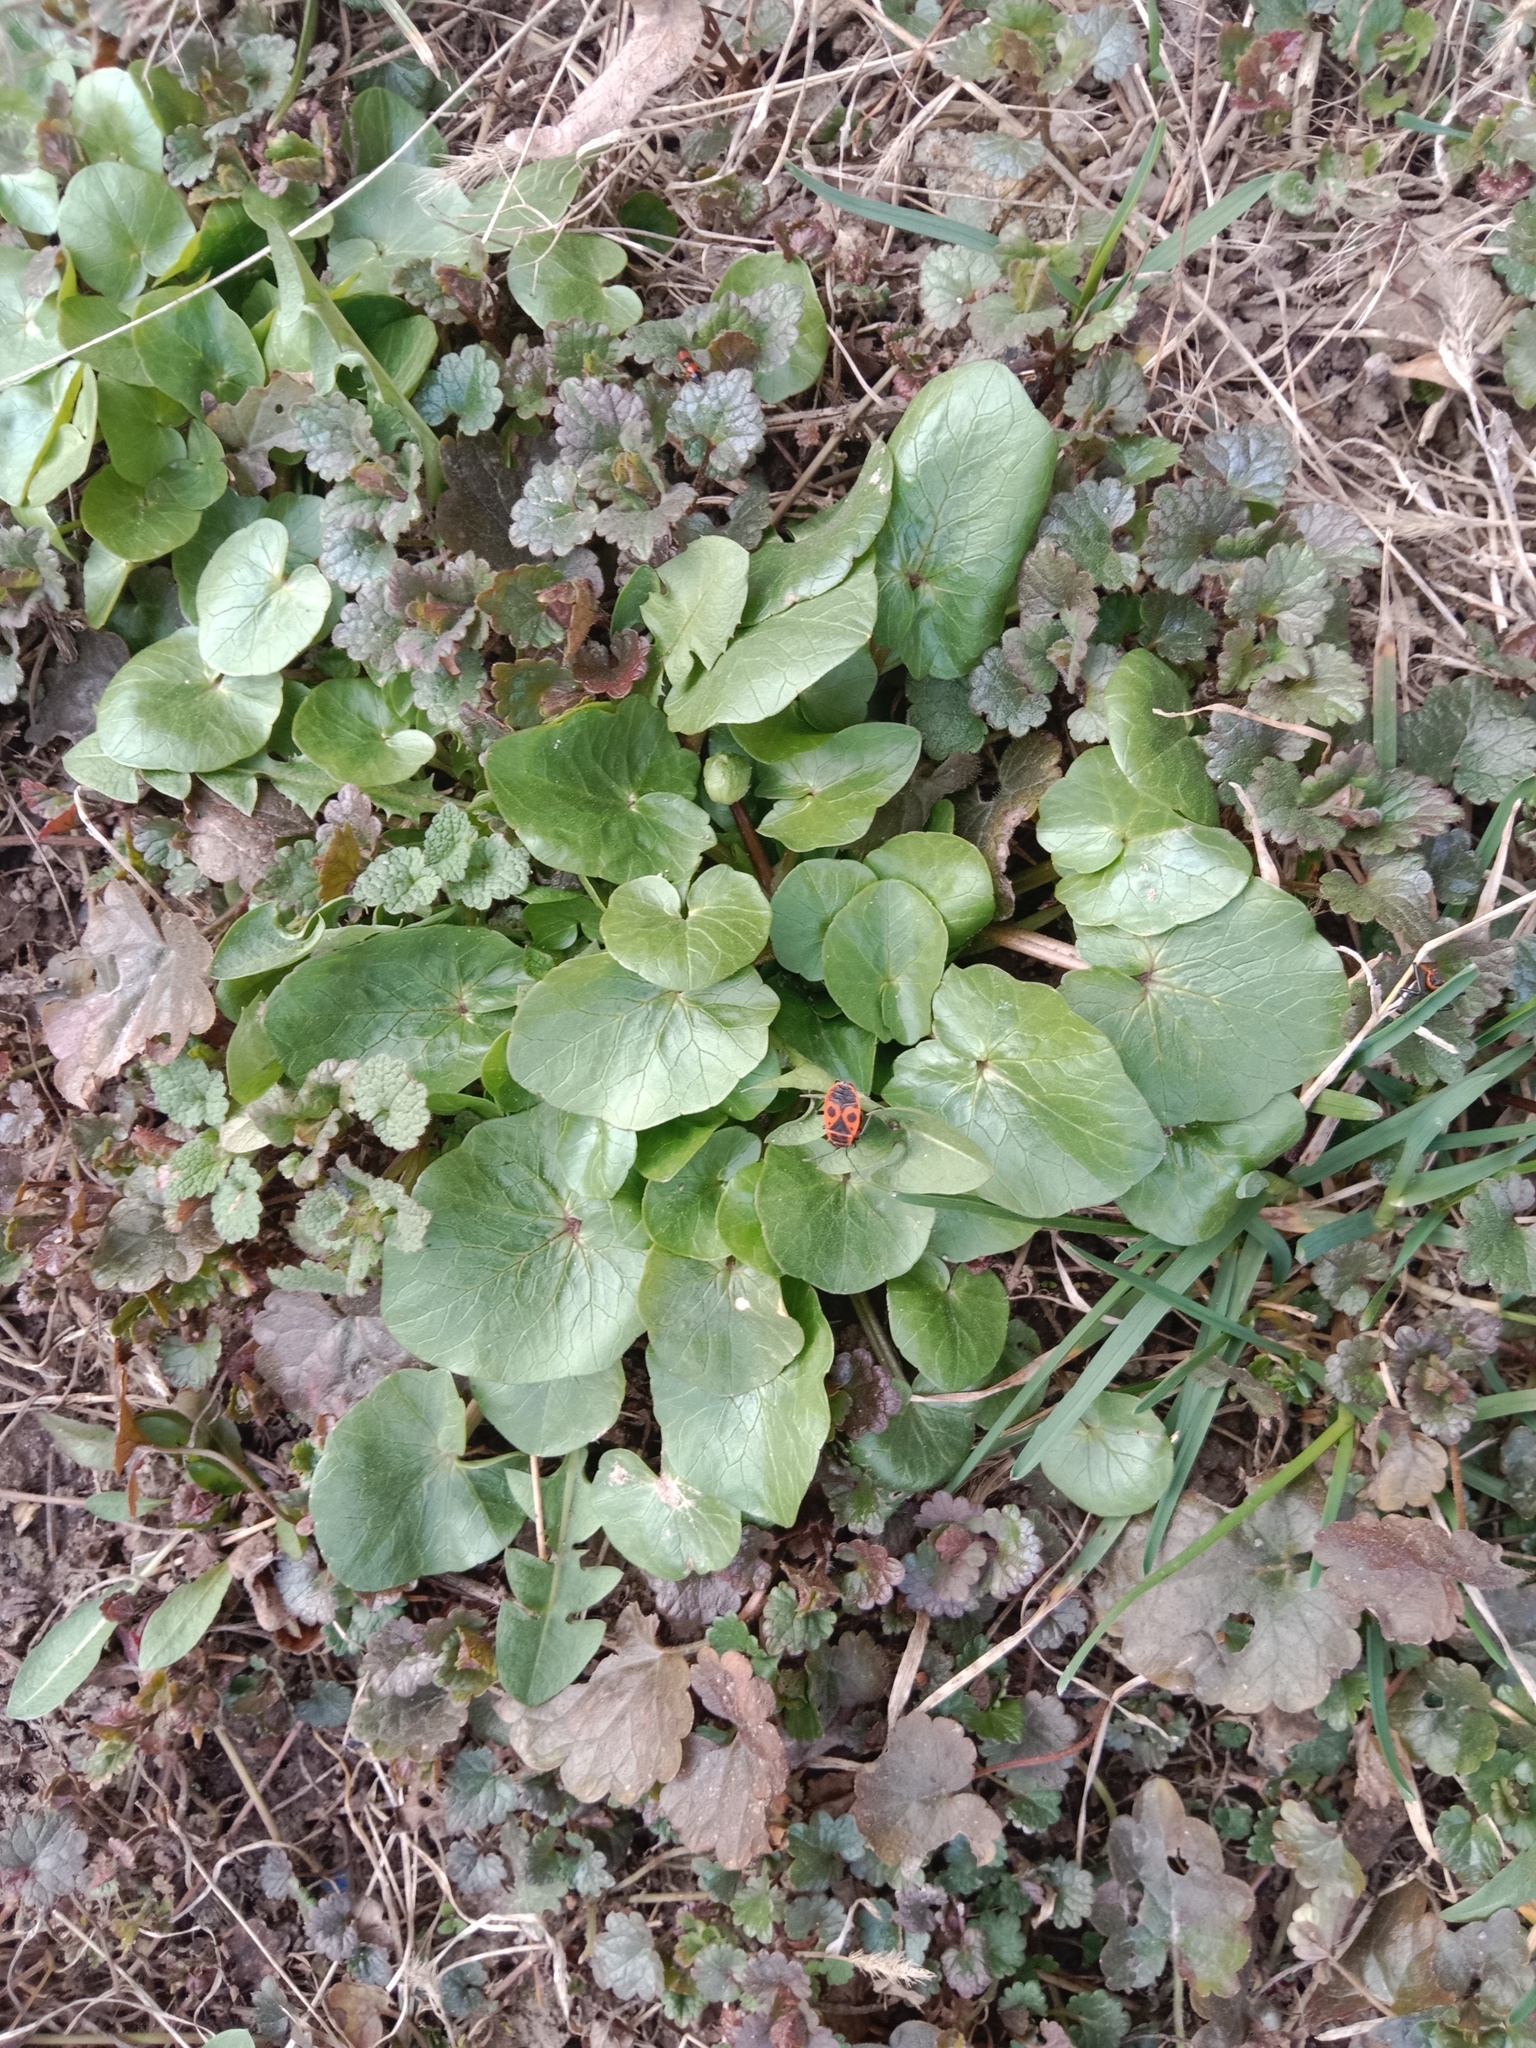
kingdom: Plantae
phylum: Tracheophyta
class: Magnoliopsida
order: Ranunculales
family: Ranunculaceae
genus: Ficaria
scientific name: Ficaria verna
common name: Lesser celandine
